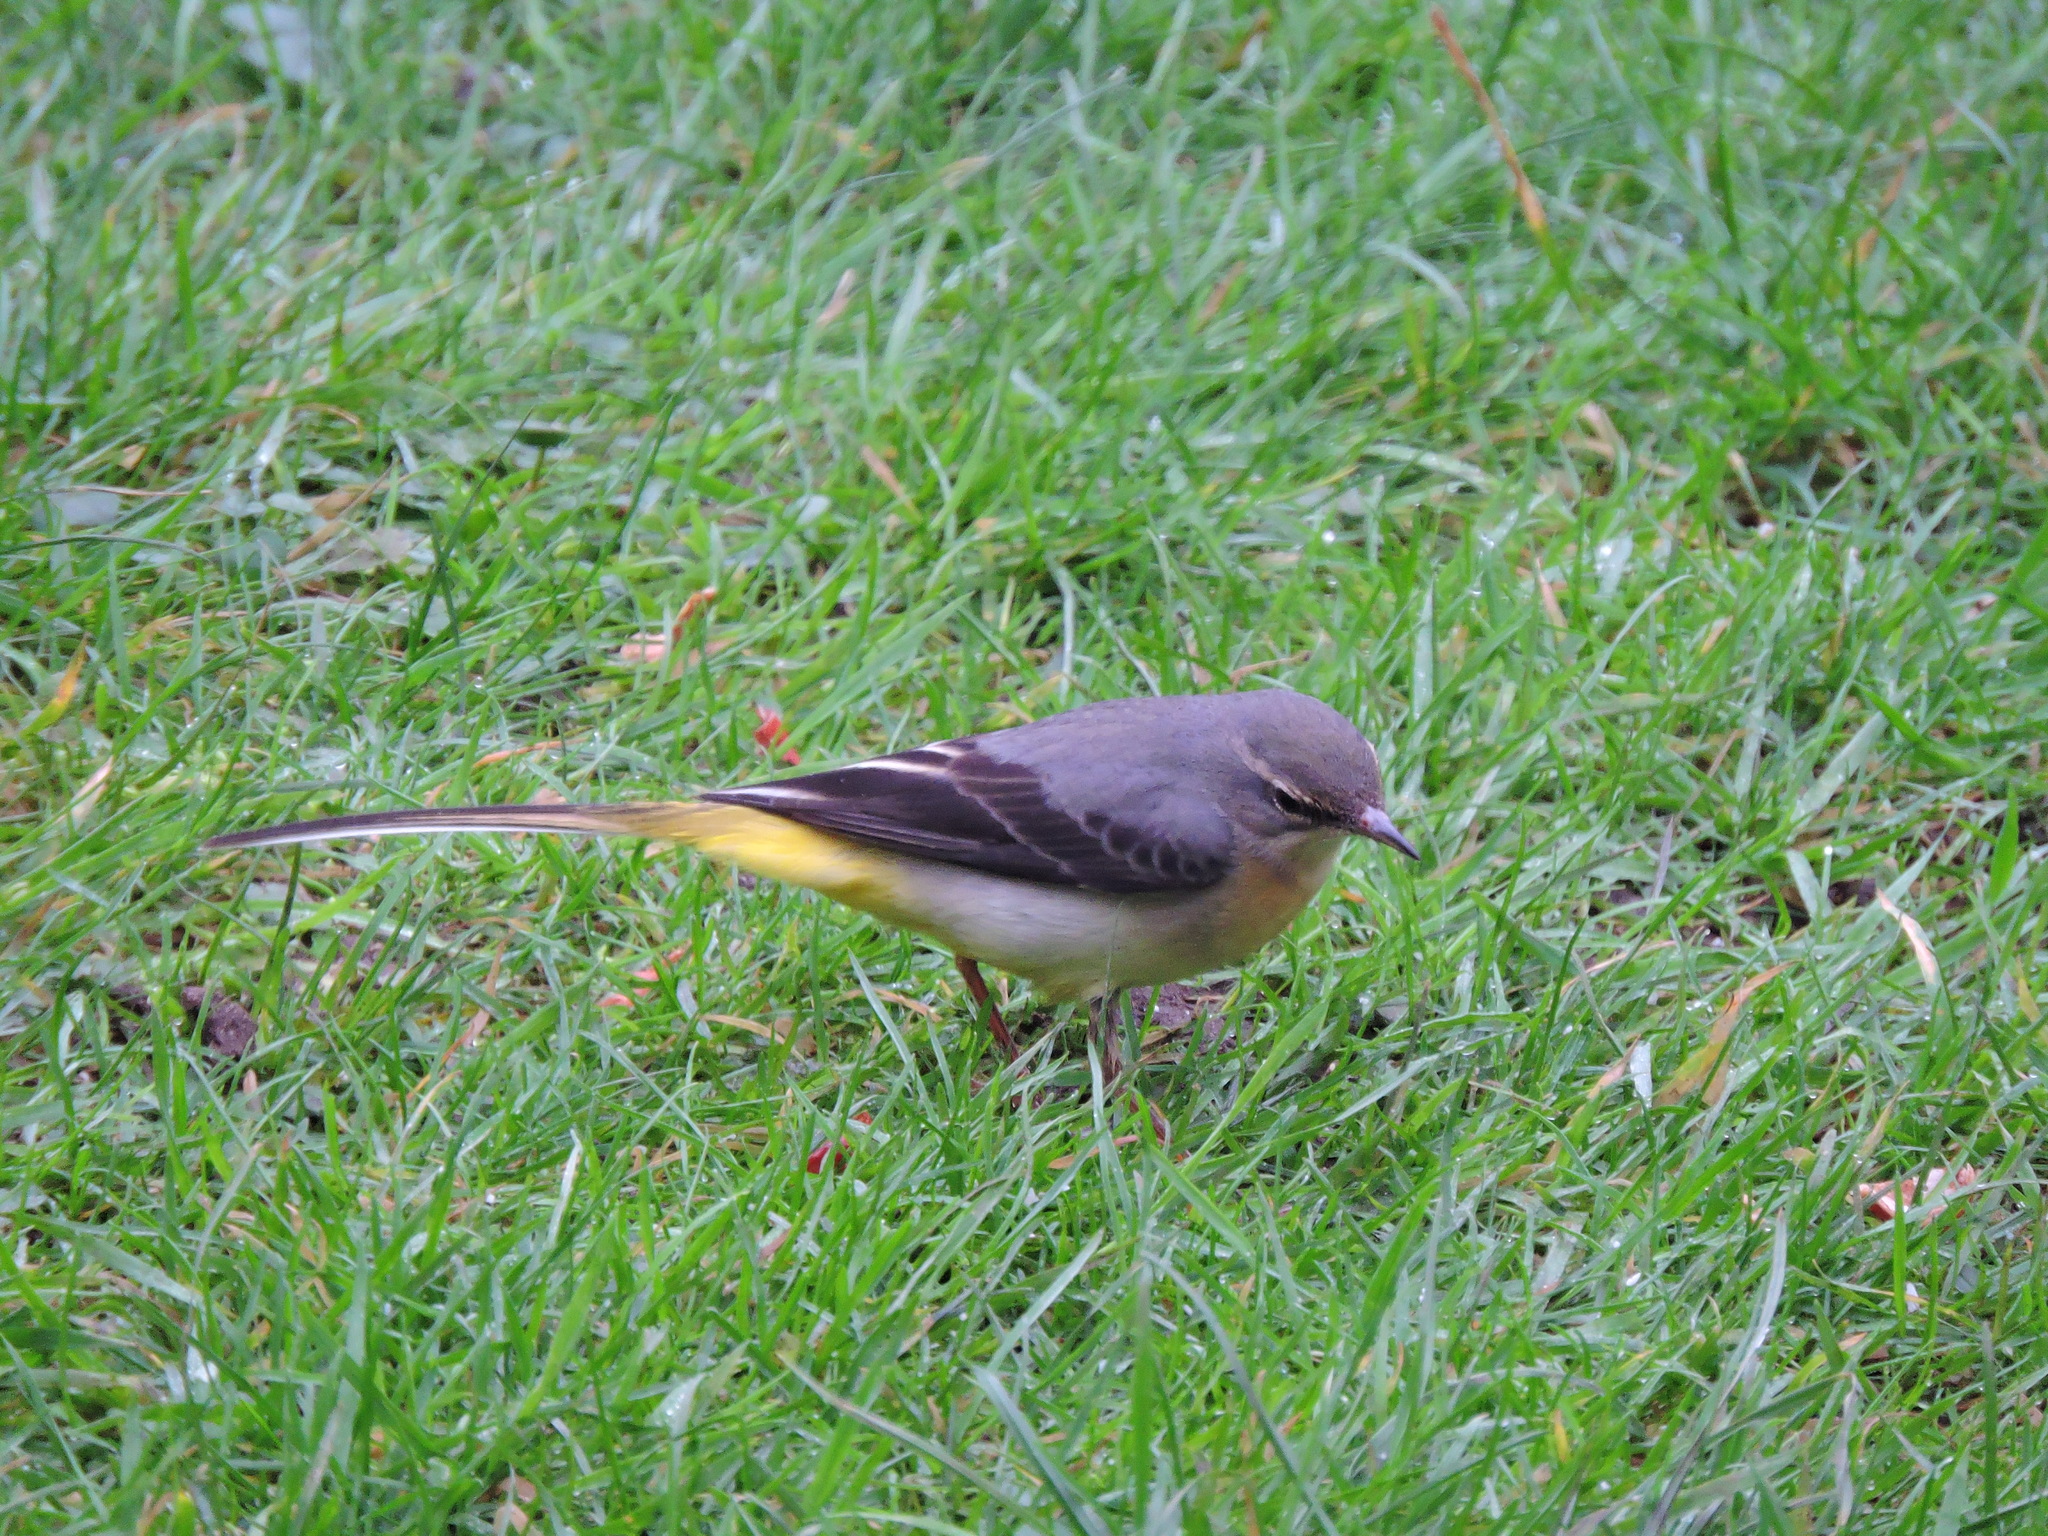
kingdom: Animalia
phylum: Chordata
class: Aves
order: Passeriformes
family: Motacillidae
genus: Motacilla
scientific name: Motacilla cinerea
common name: Grey wagtail
